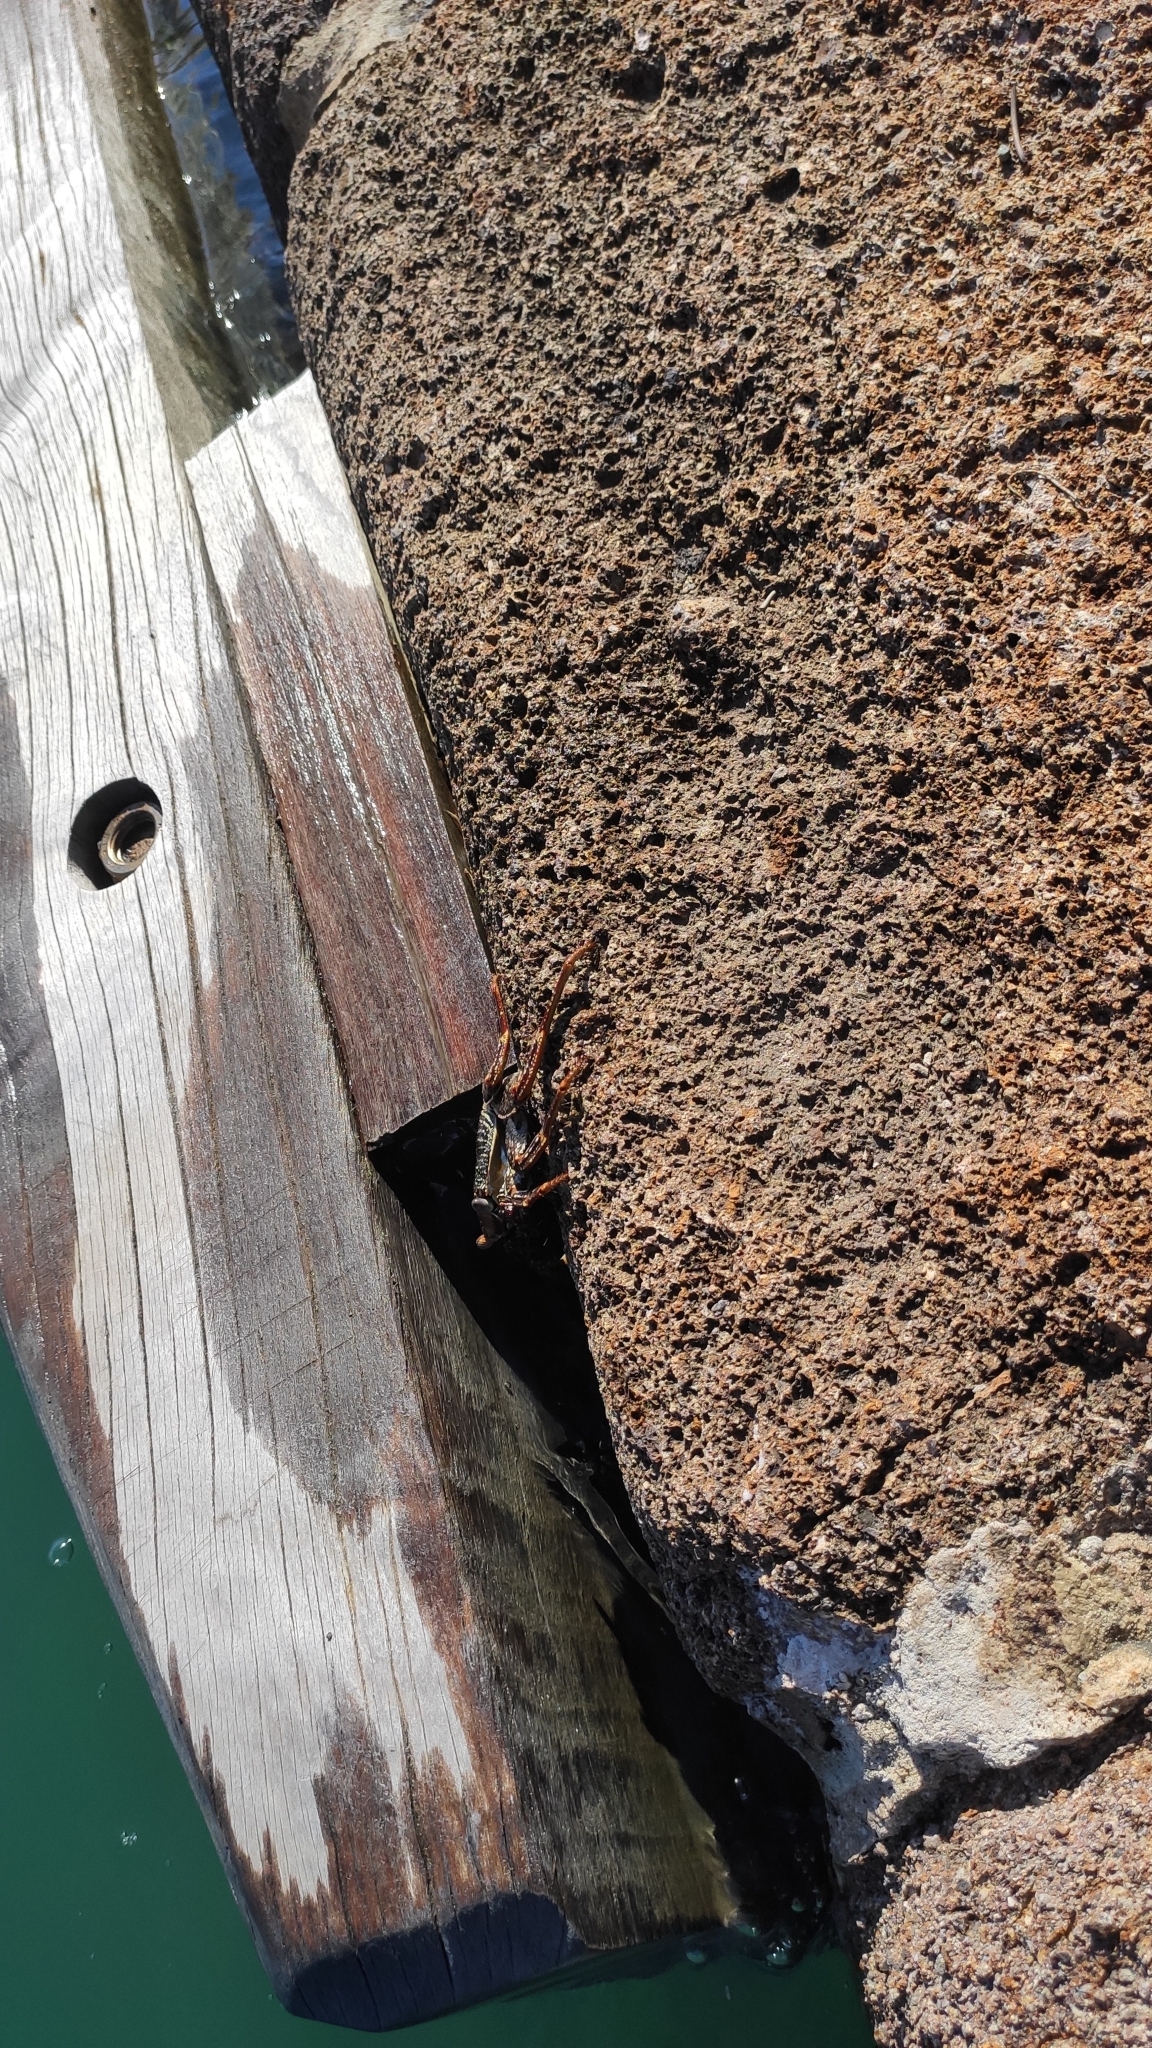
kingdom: Animalia
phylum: Arthropoda
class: Malacostraca
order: Decapoda
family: Grapsidae
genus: Grapsus
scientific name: Grapsus grapsus
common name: Sally lightfoot
